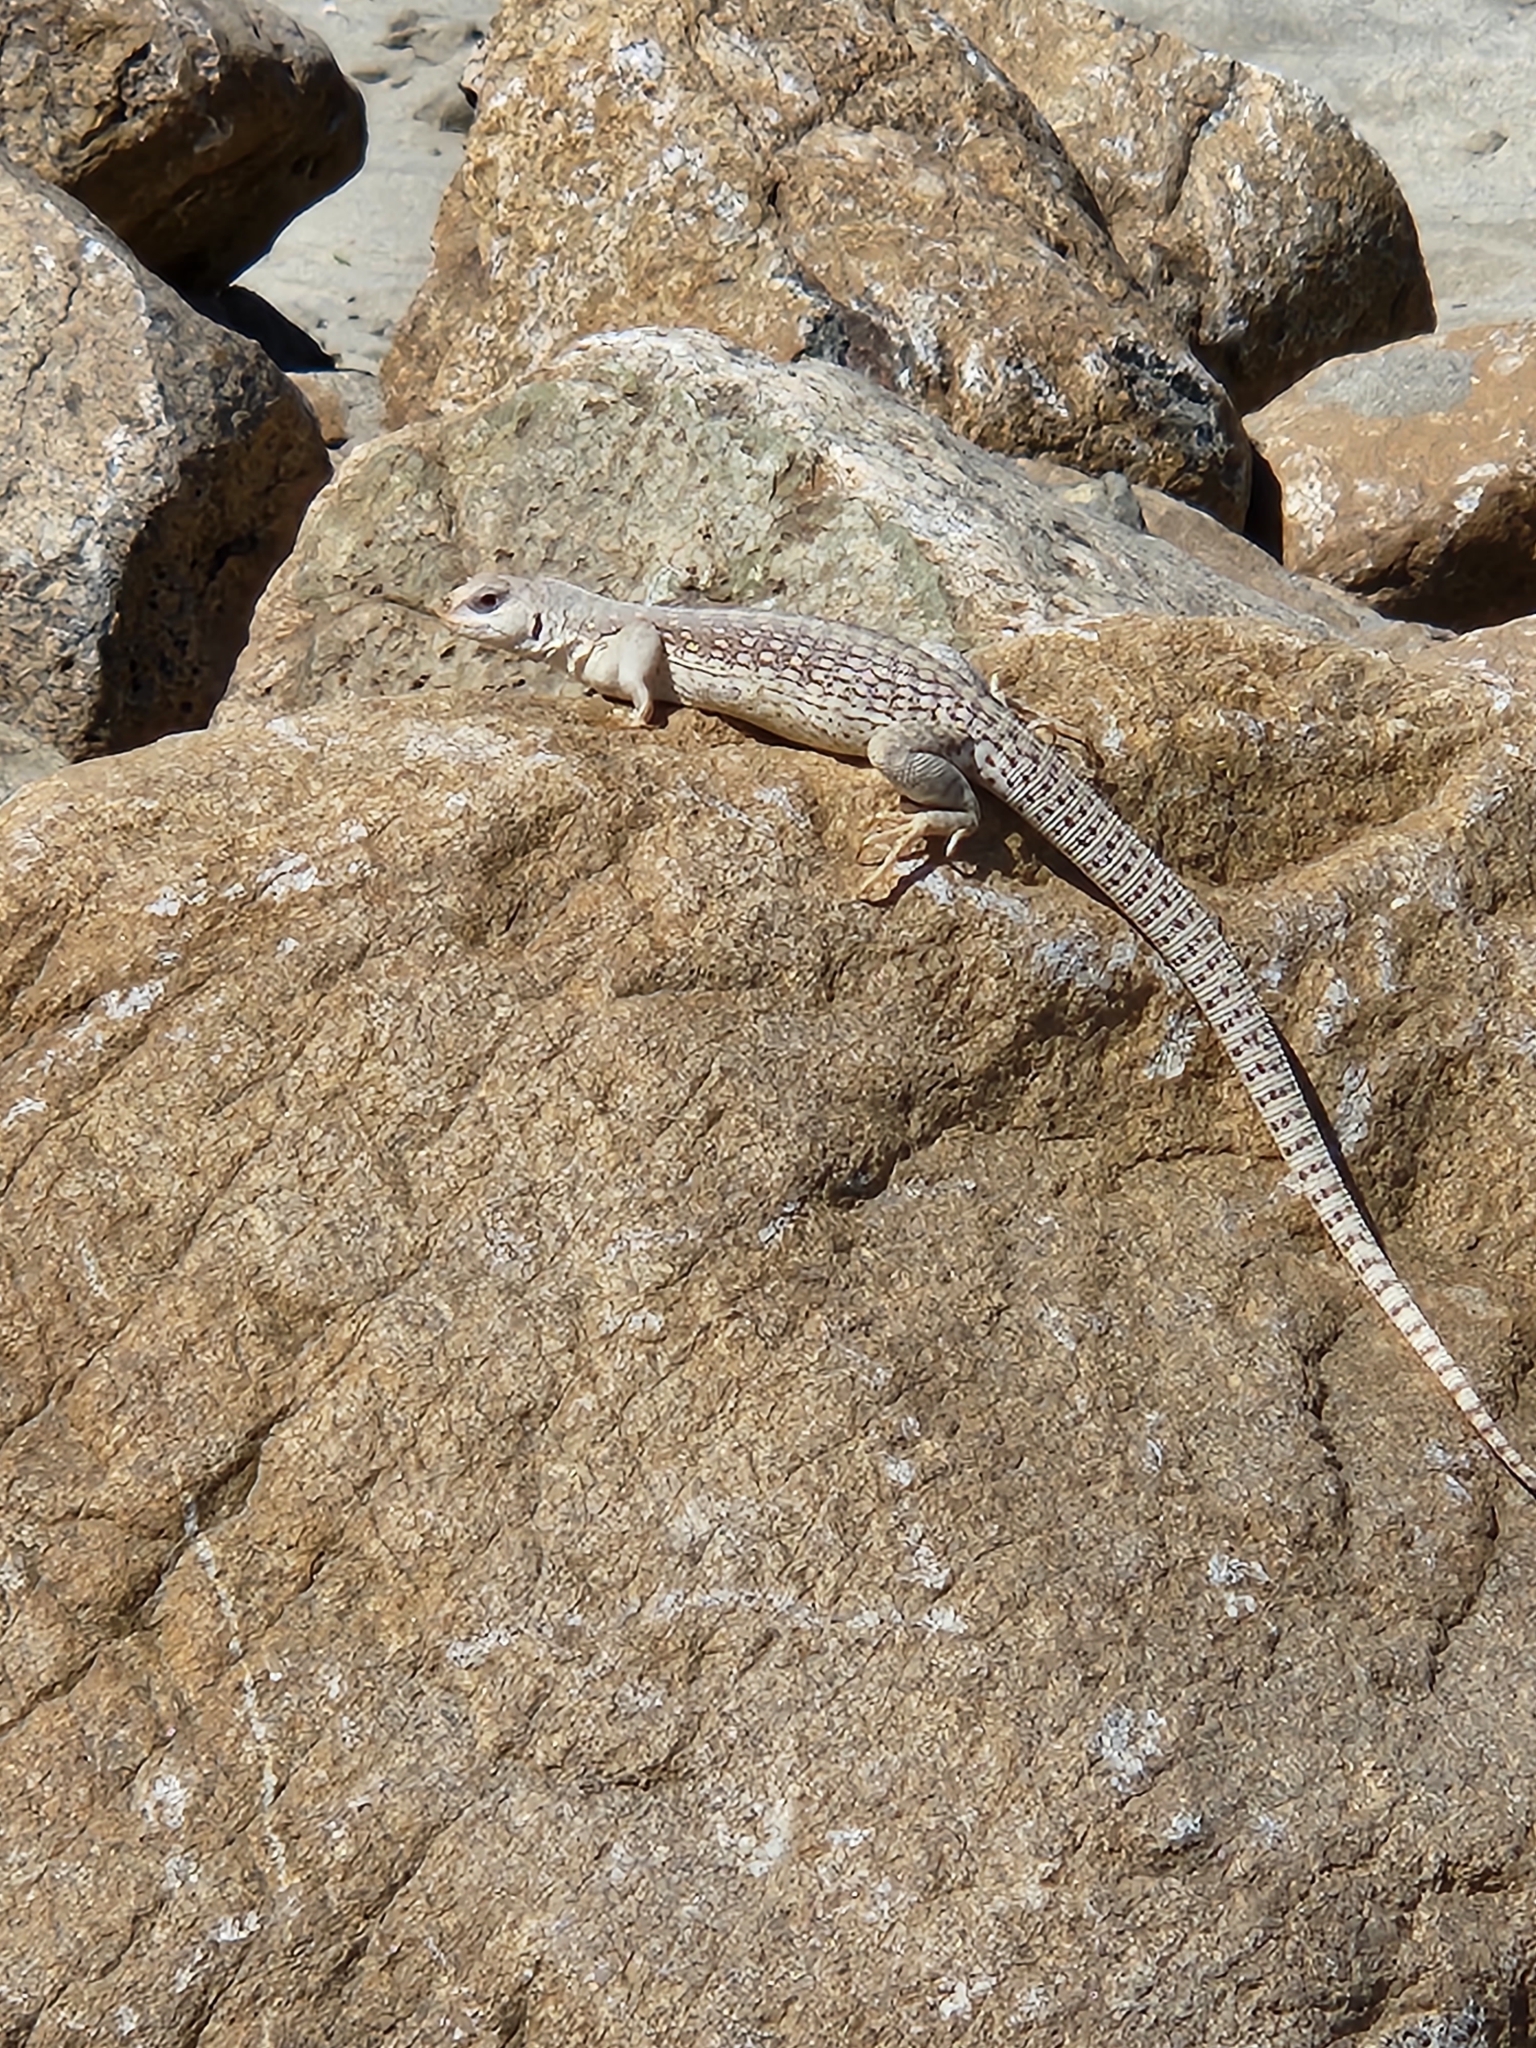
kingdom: Animalia
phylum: Chordata
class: Squamata
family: Iguanidae
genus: Dipsosaurus
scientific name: Dipsosaurus dorsalis
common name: Desert iguana
